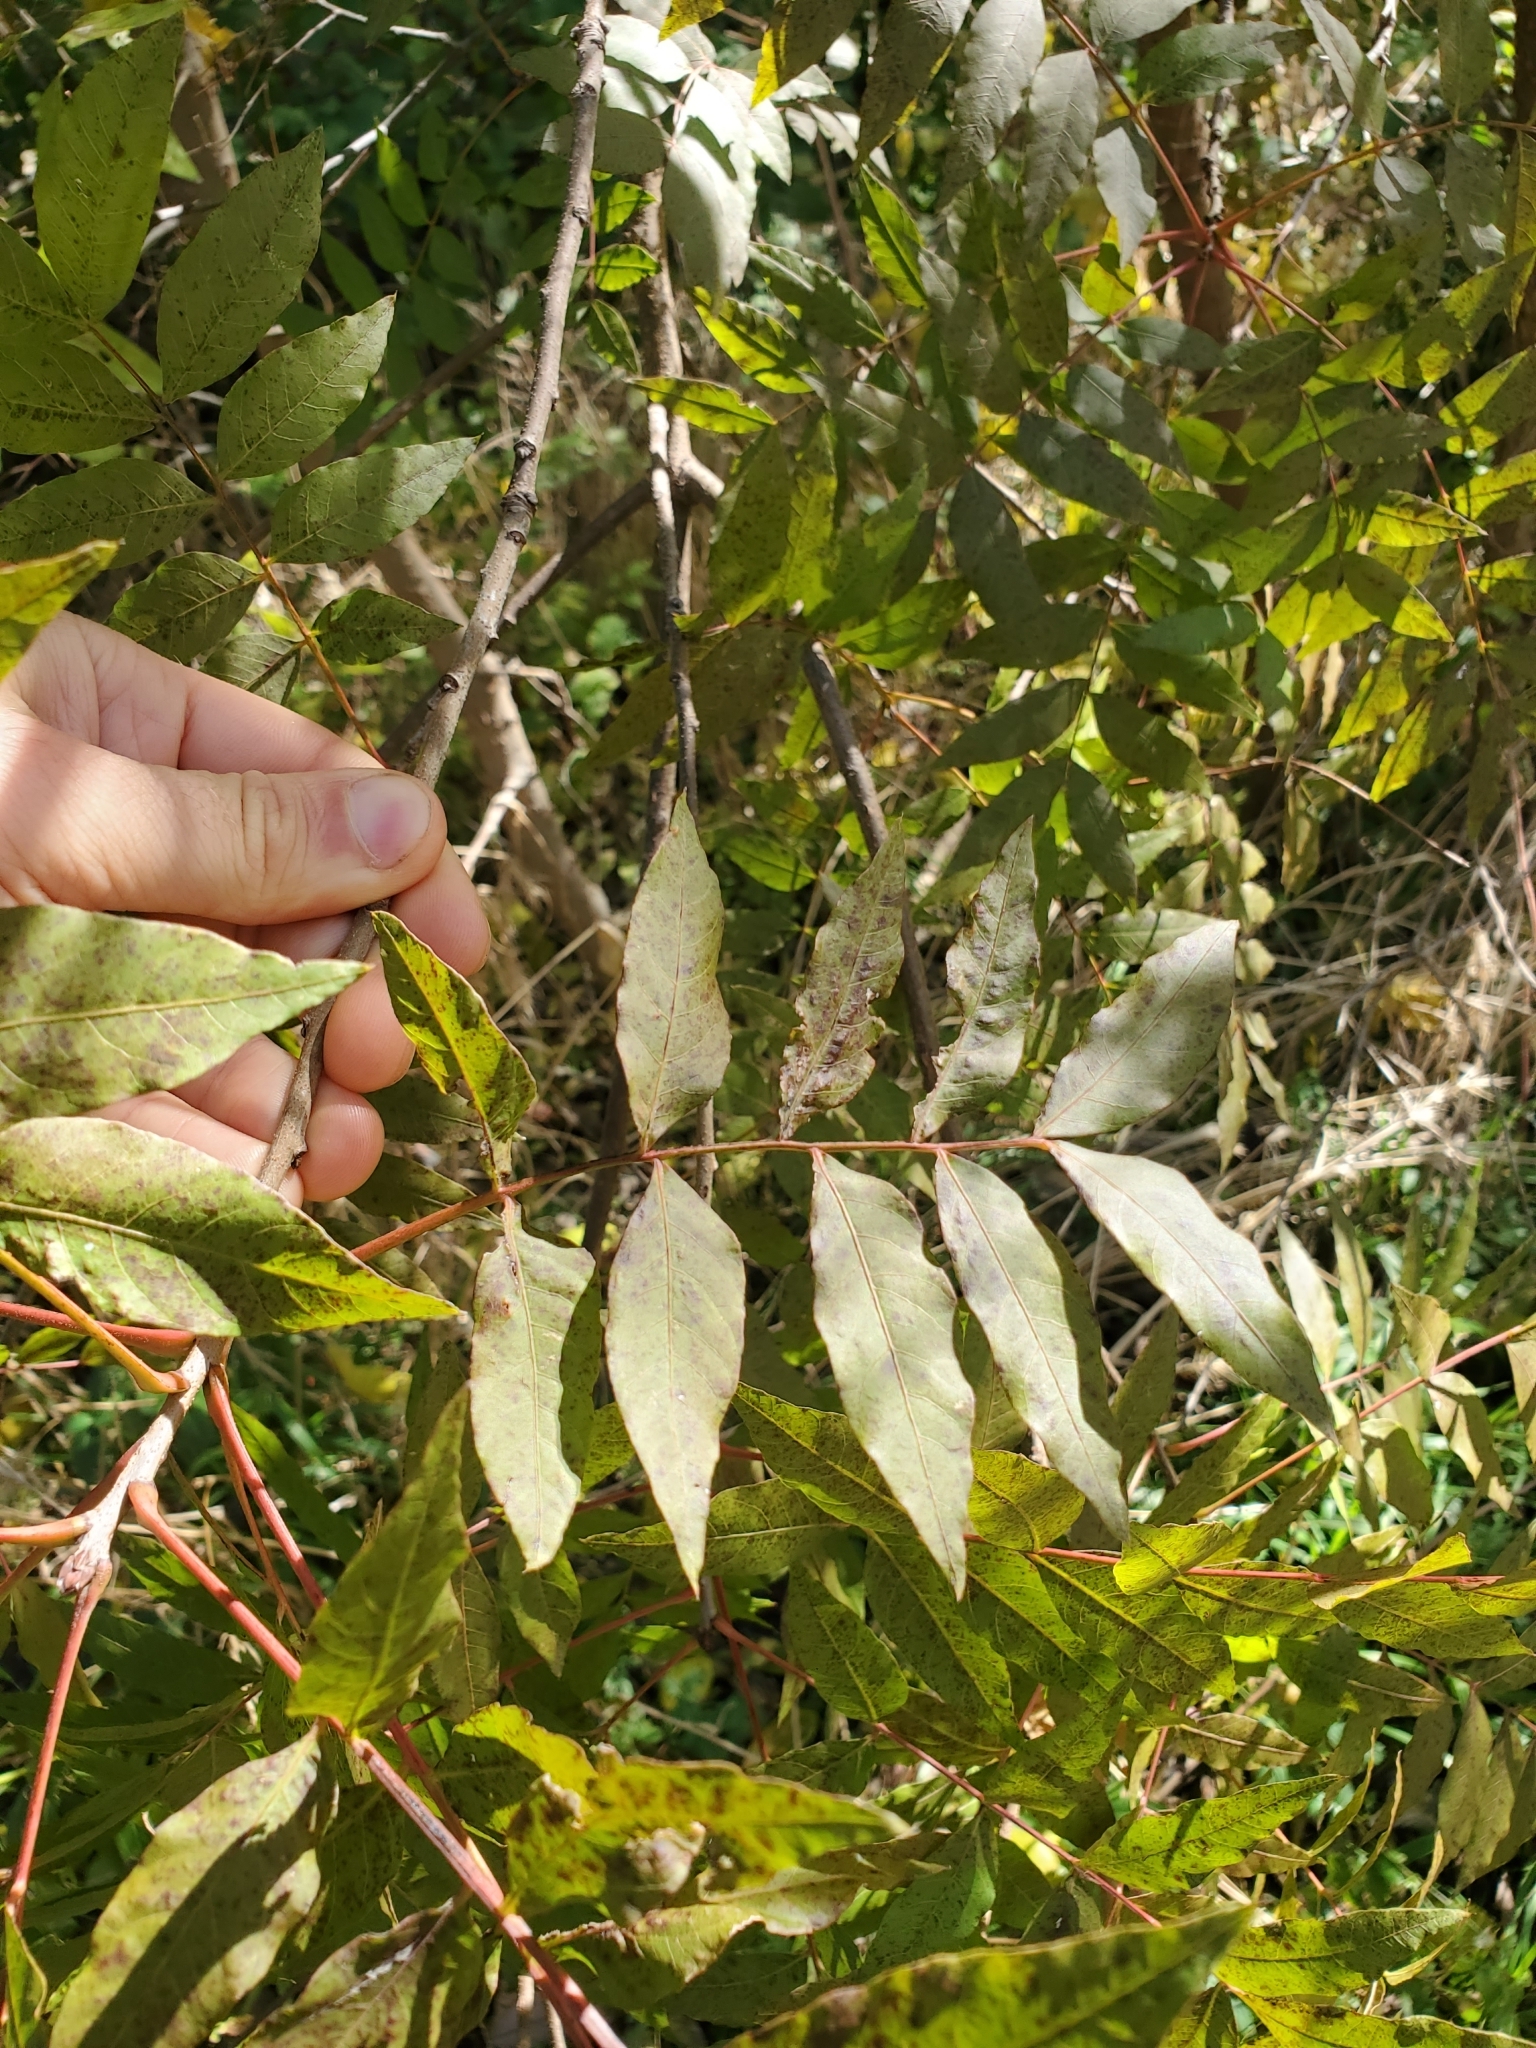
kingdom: Plantae
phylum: Tracheophyta
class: Magnoliopsida
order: Sapindales
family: Anacardiaceae
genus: Pistacia
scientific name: Pistacia chinensis
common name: Chinese pistache
